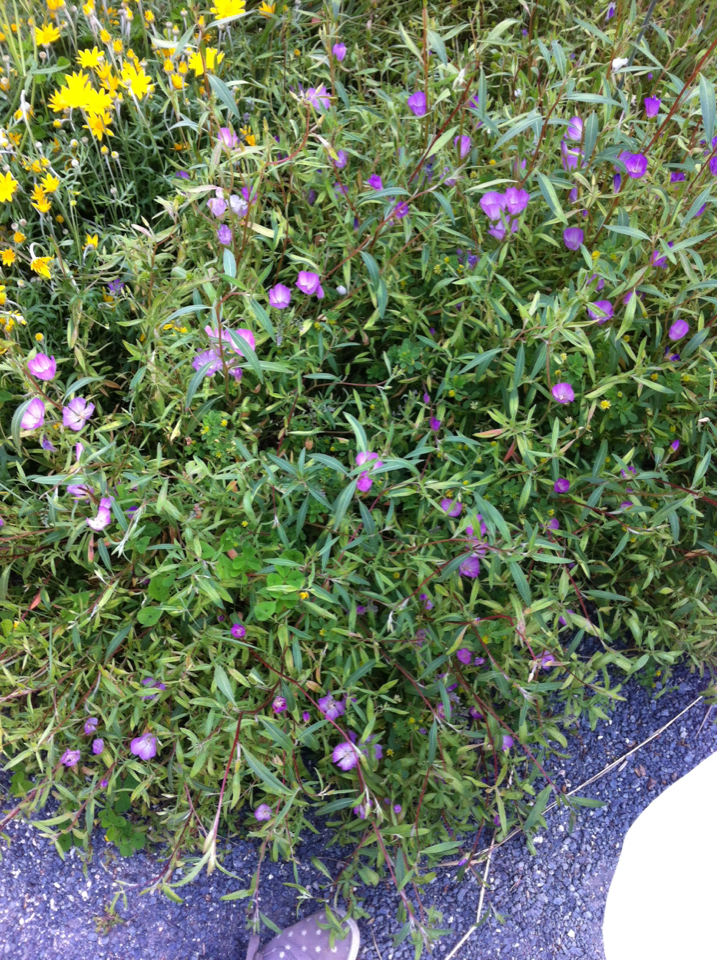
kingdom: Plantae
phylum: Tracheophyta
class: Magnoliopsida
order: Myrtales
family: Onagraceae
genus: Clarkia
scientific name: Clarkia amoena
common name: Godetia
